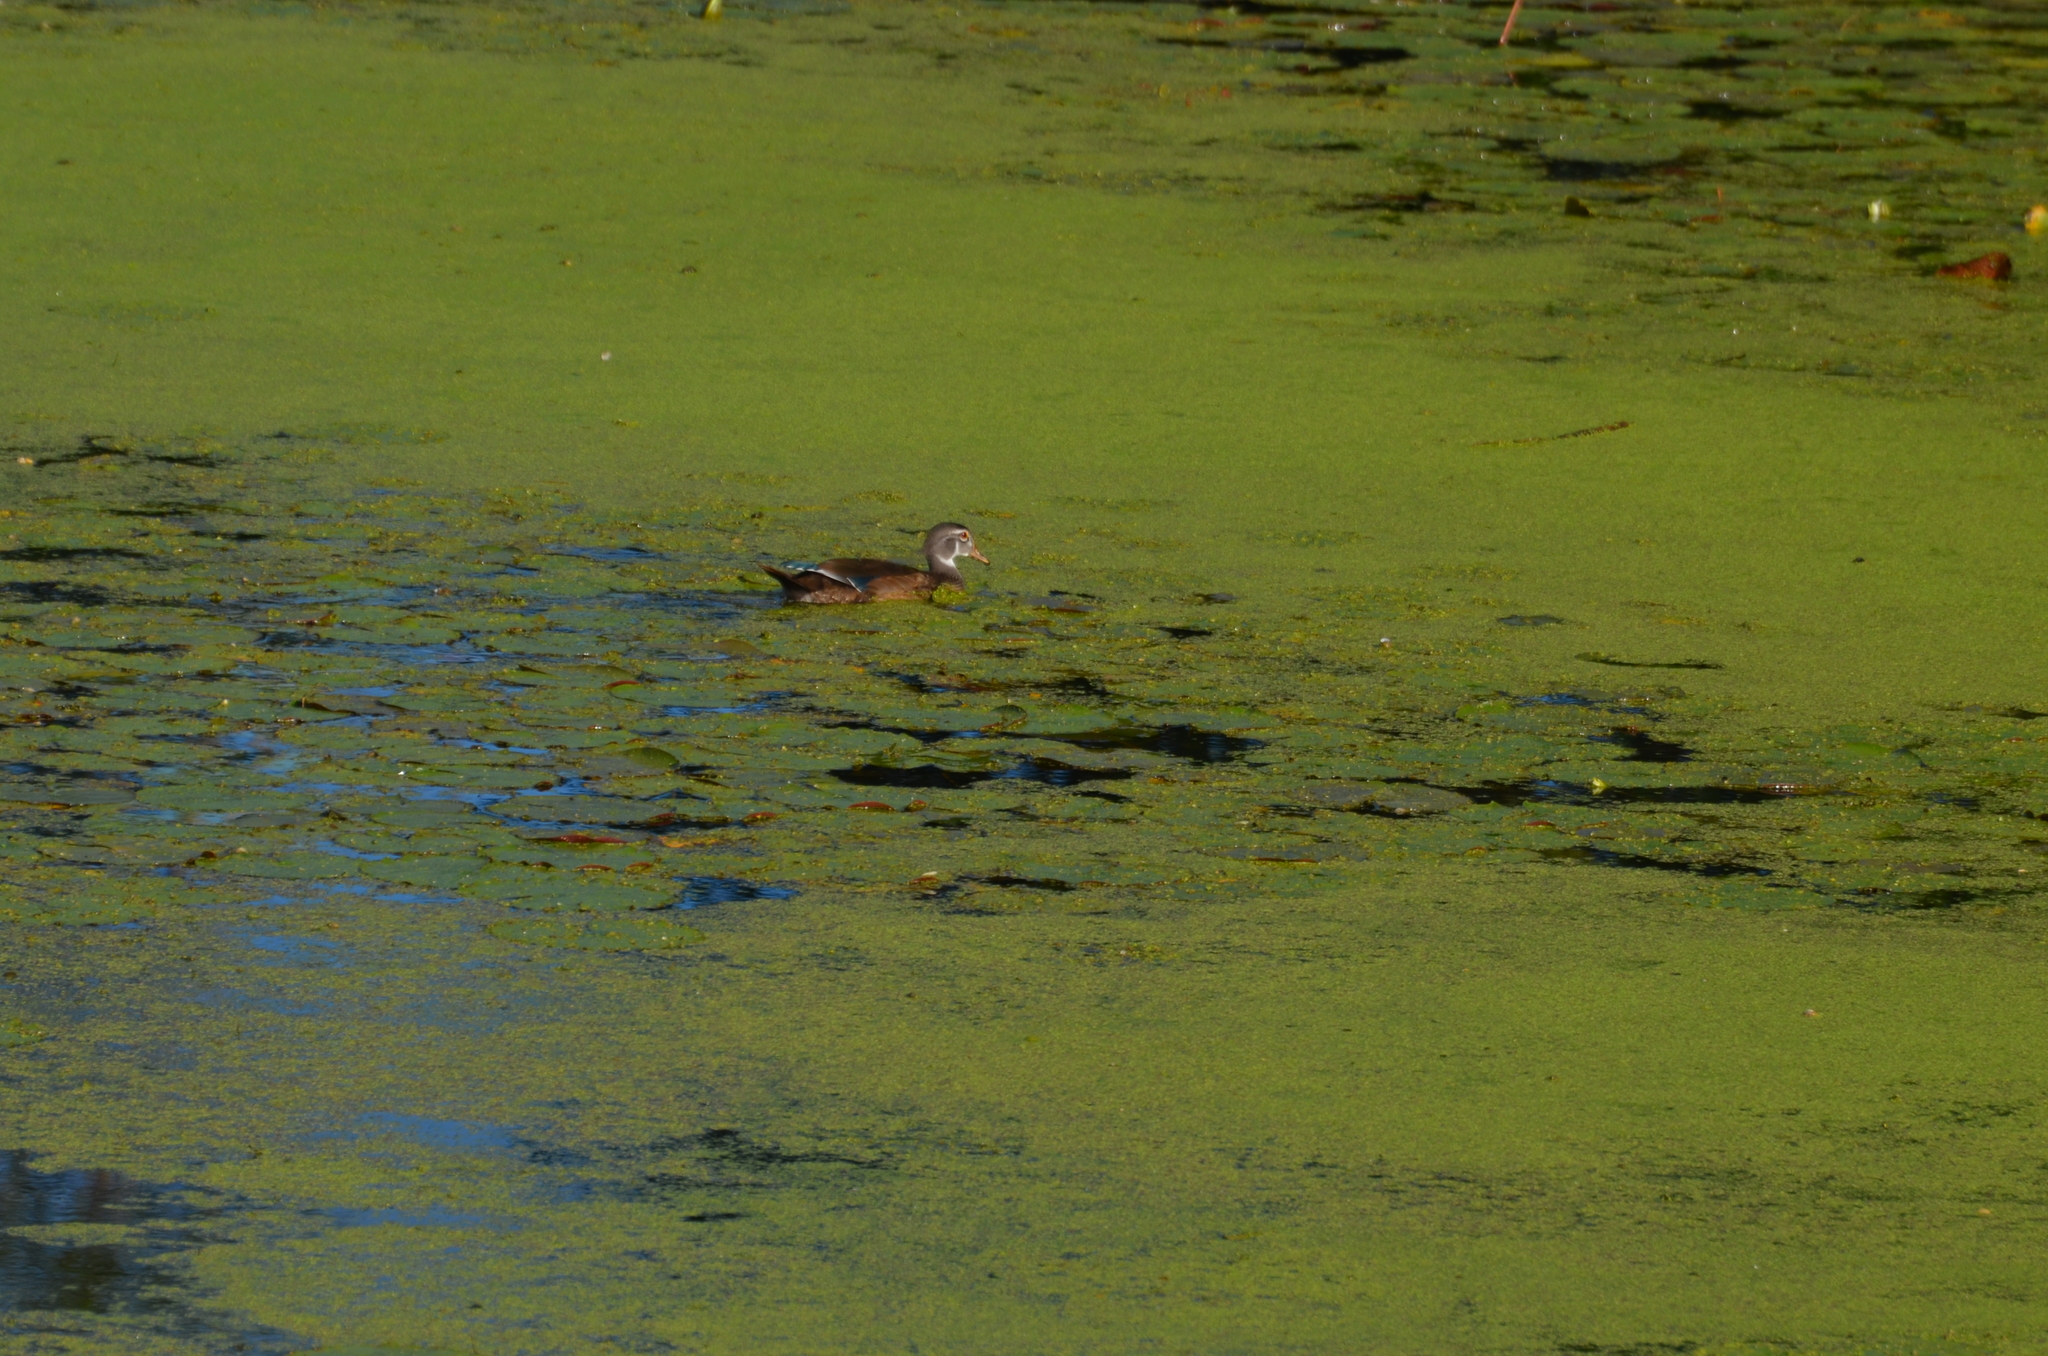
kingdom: Animalia
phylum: Chordata
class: Aves
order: Anseriformes
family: Anatidae
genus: Aix
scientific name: Aix sponsa
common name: Wood duck
